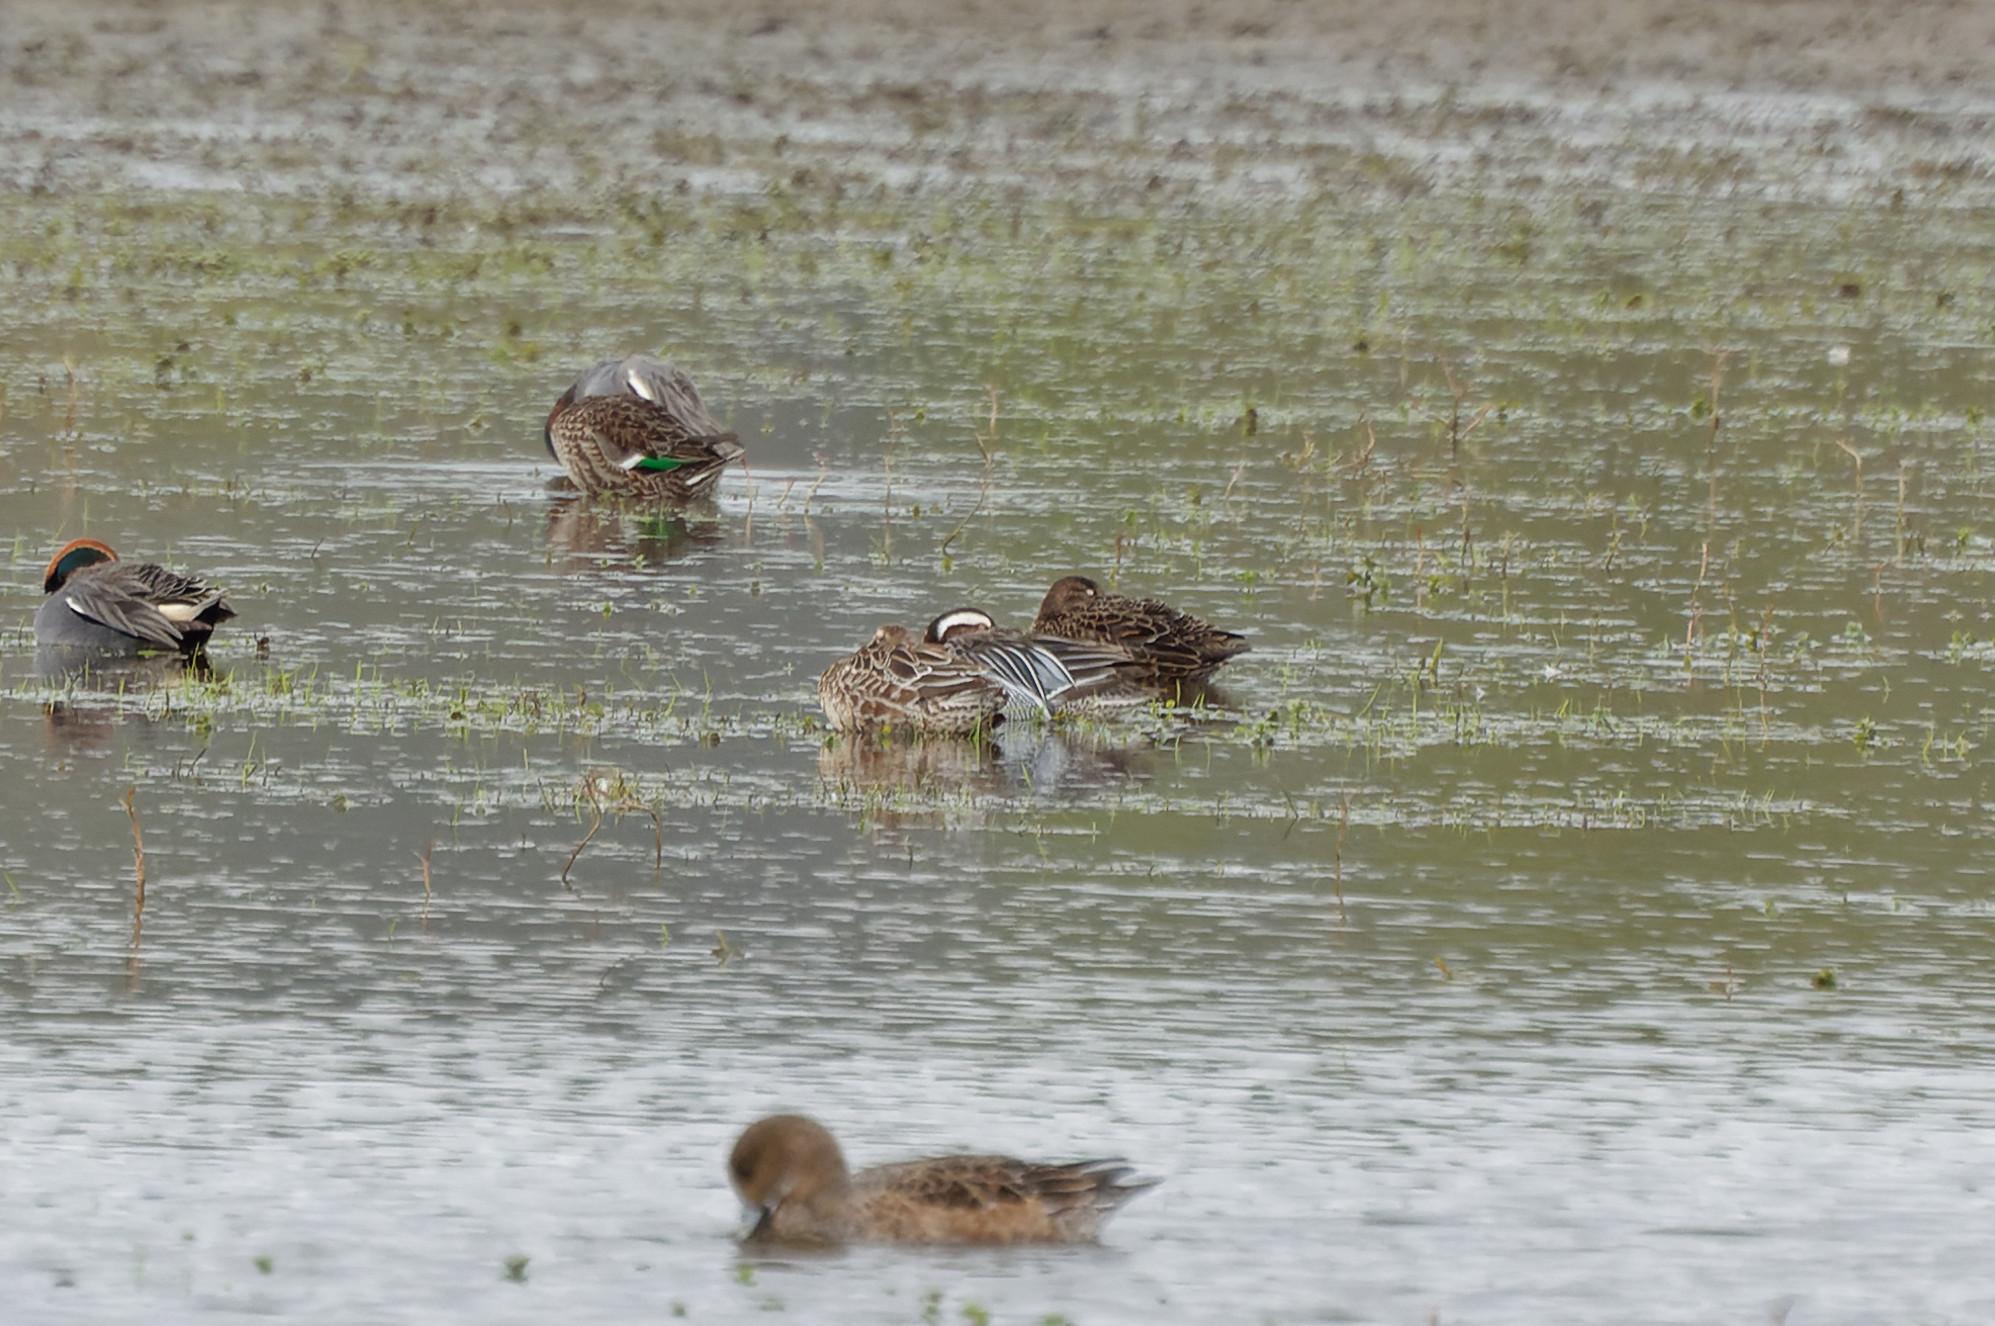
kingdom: Animalia
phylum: Chordata
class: Aves
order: Anseriformes
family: Anatidae
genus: Spatula
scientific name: Spatula querquedula
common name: Garganey
